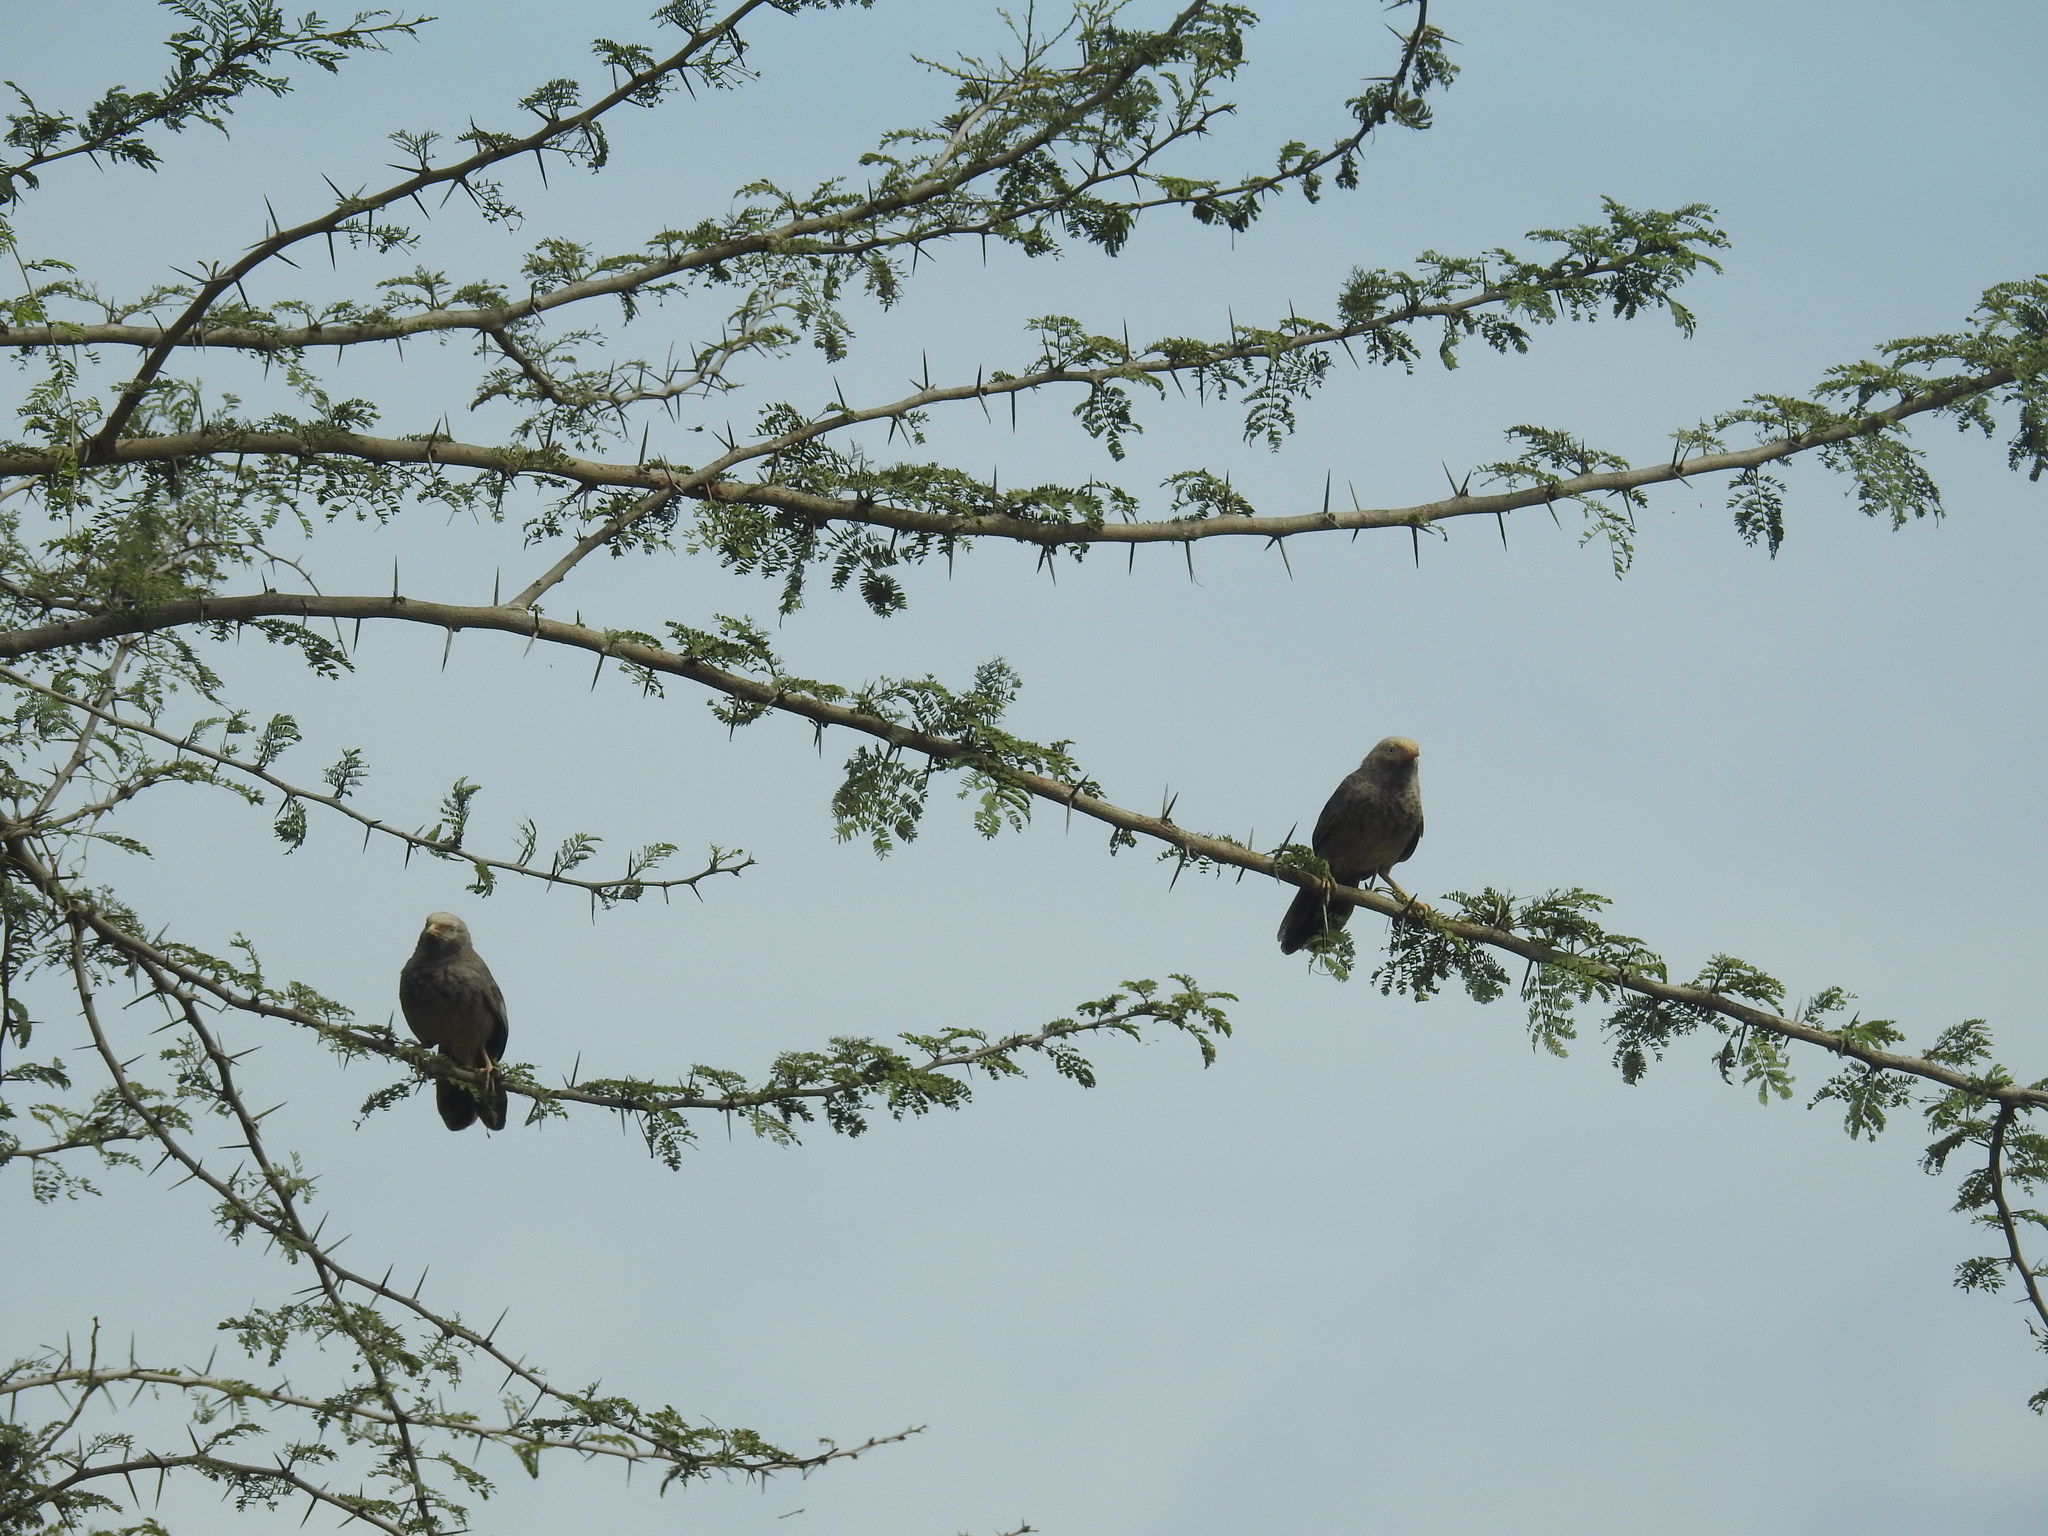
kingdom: Animalia
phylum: Chordata
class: Aves
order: Passeriformes
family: Leiothrichidae
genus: Turdoides
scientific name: Turdoides affinis
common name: Yellow-billed babbler
